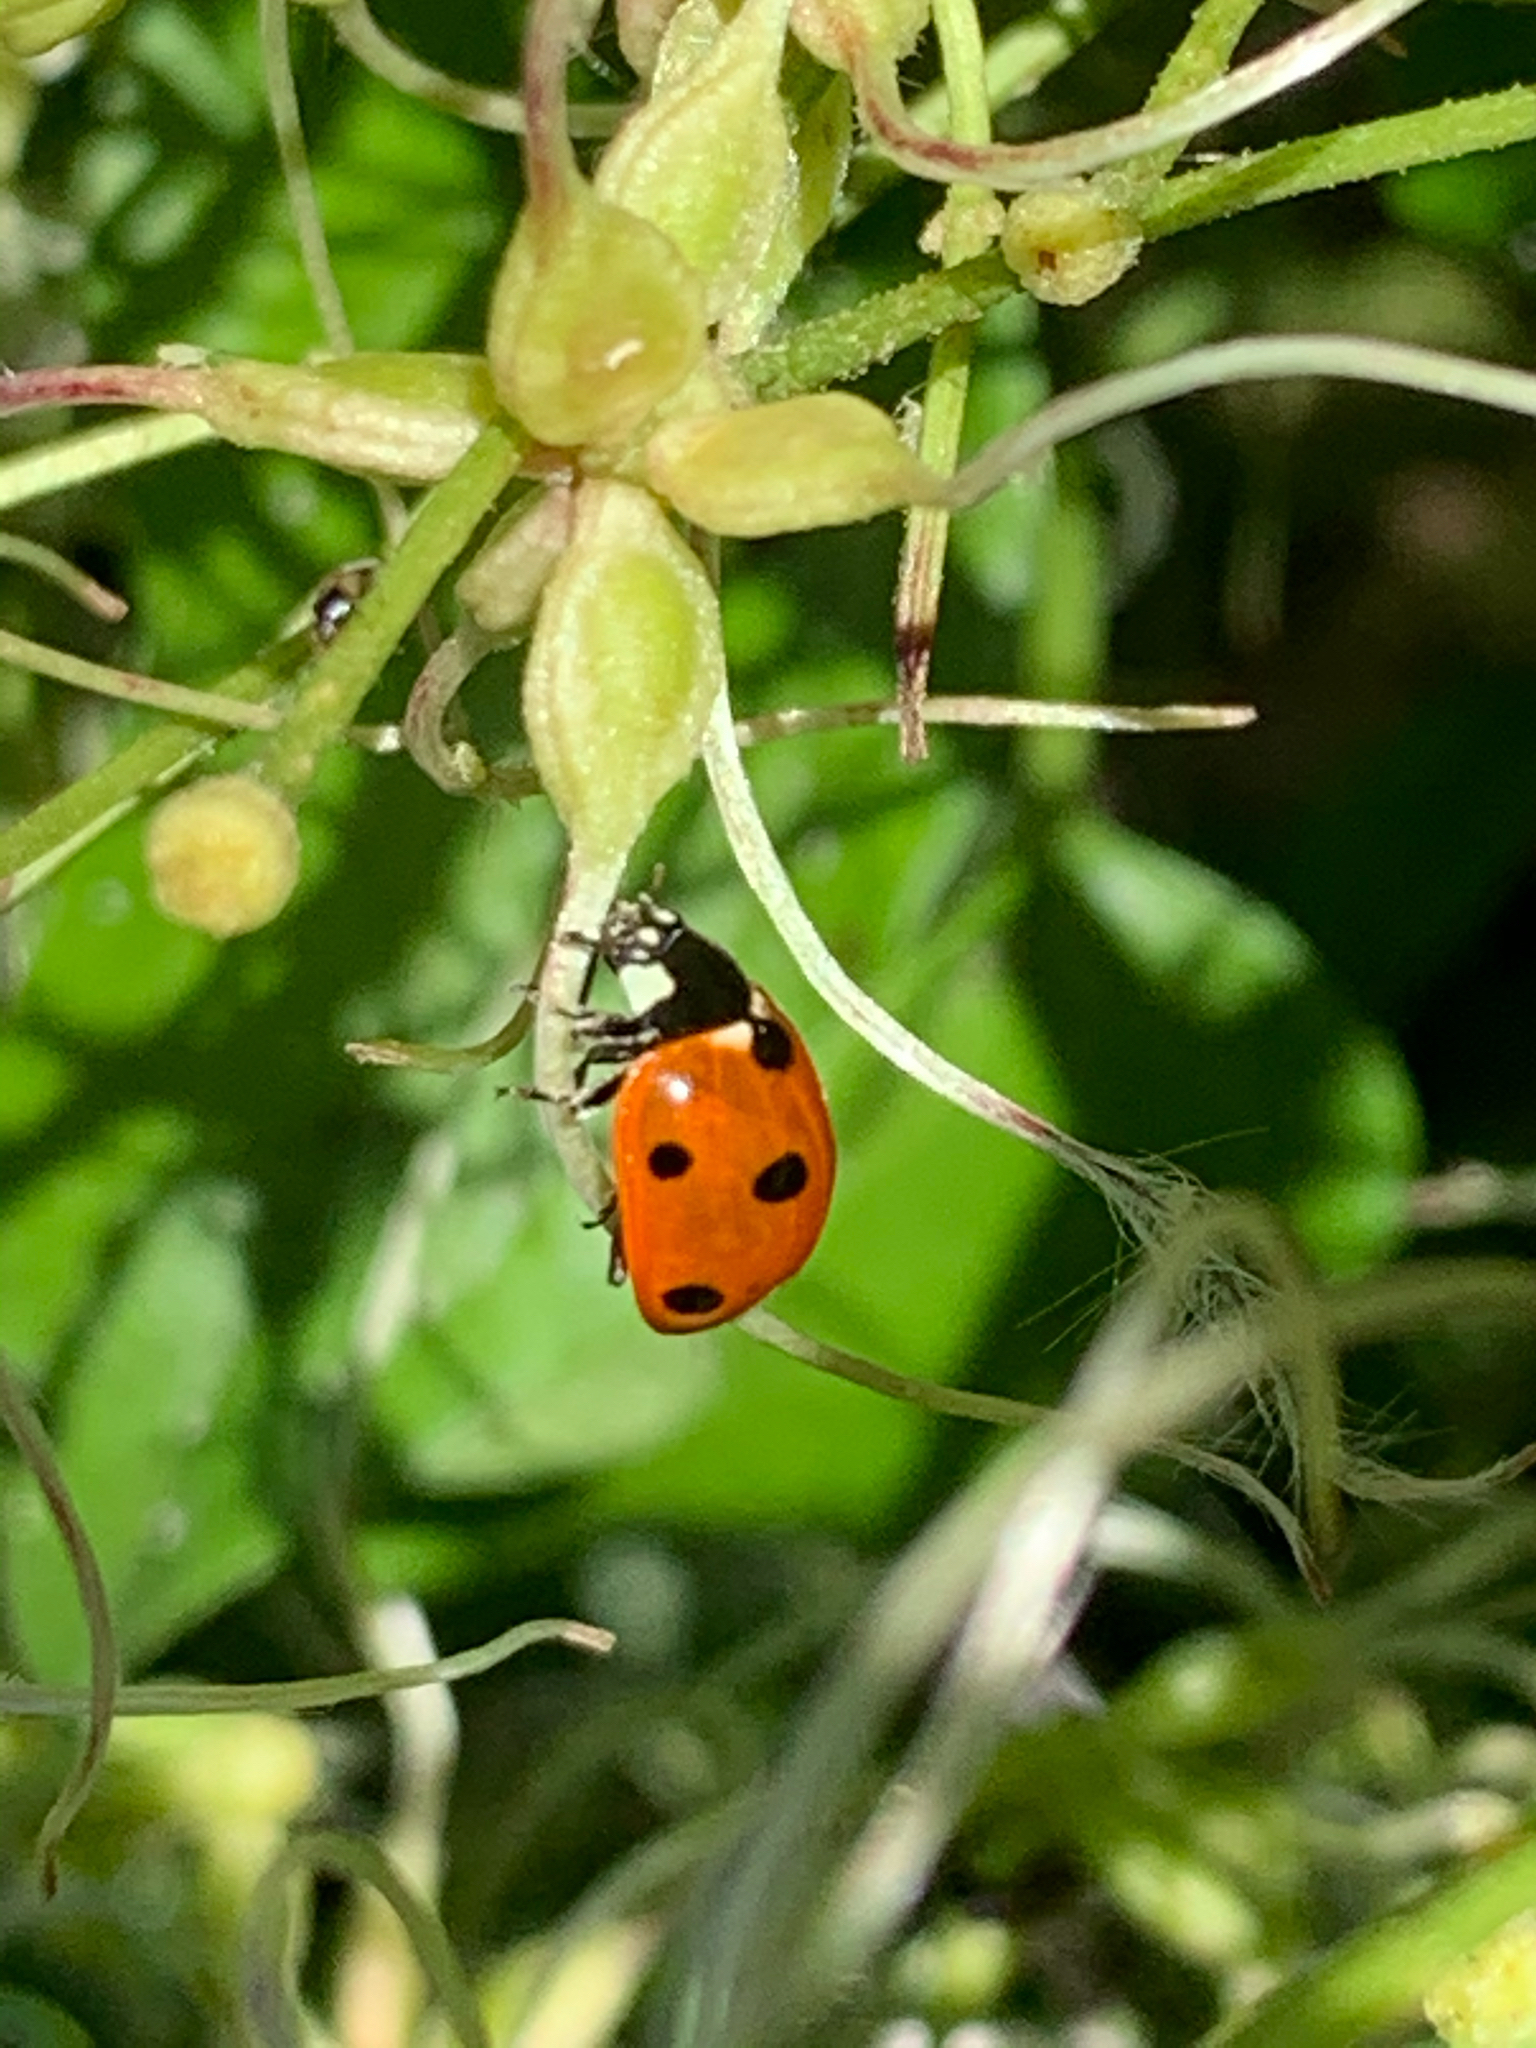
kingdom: Animalia
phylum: Arthropoda
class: Insecta
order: Coleoptera
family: Coccinellidae
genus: Coccinella
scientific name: Coccinella septempunctata
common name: Sevenspotted lady beetle
